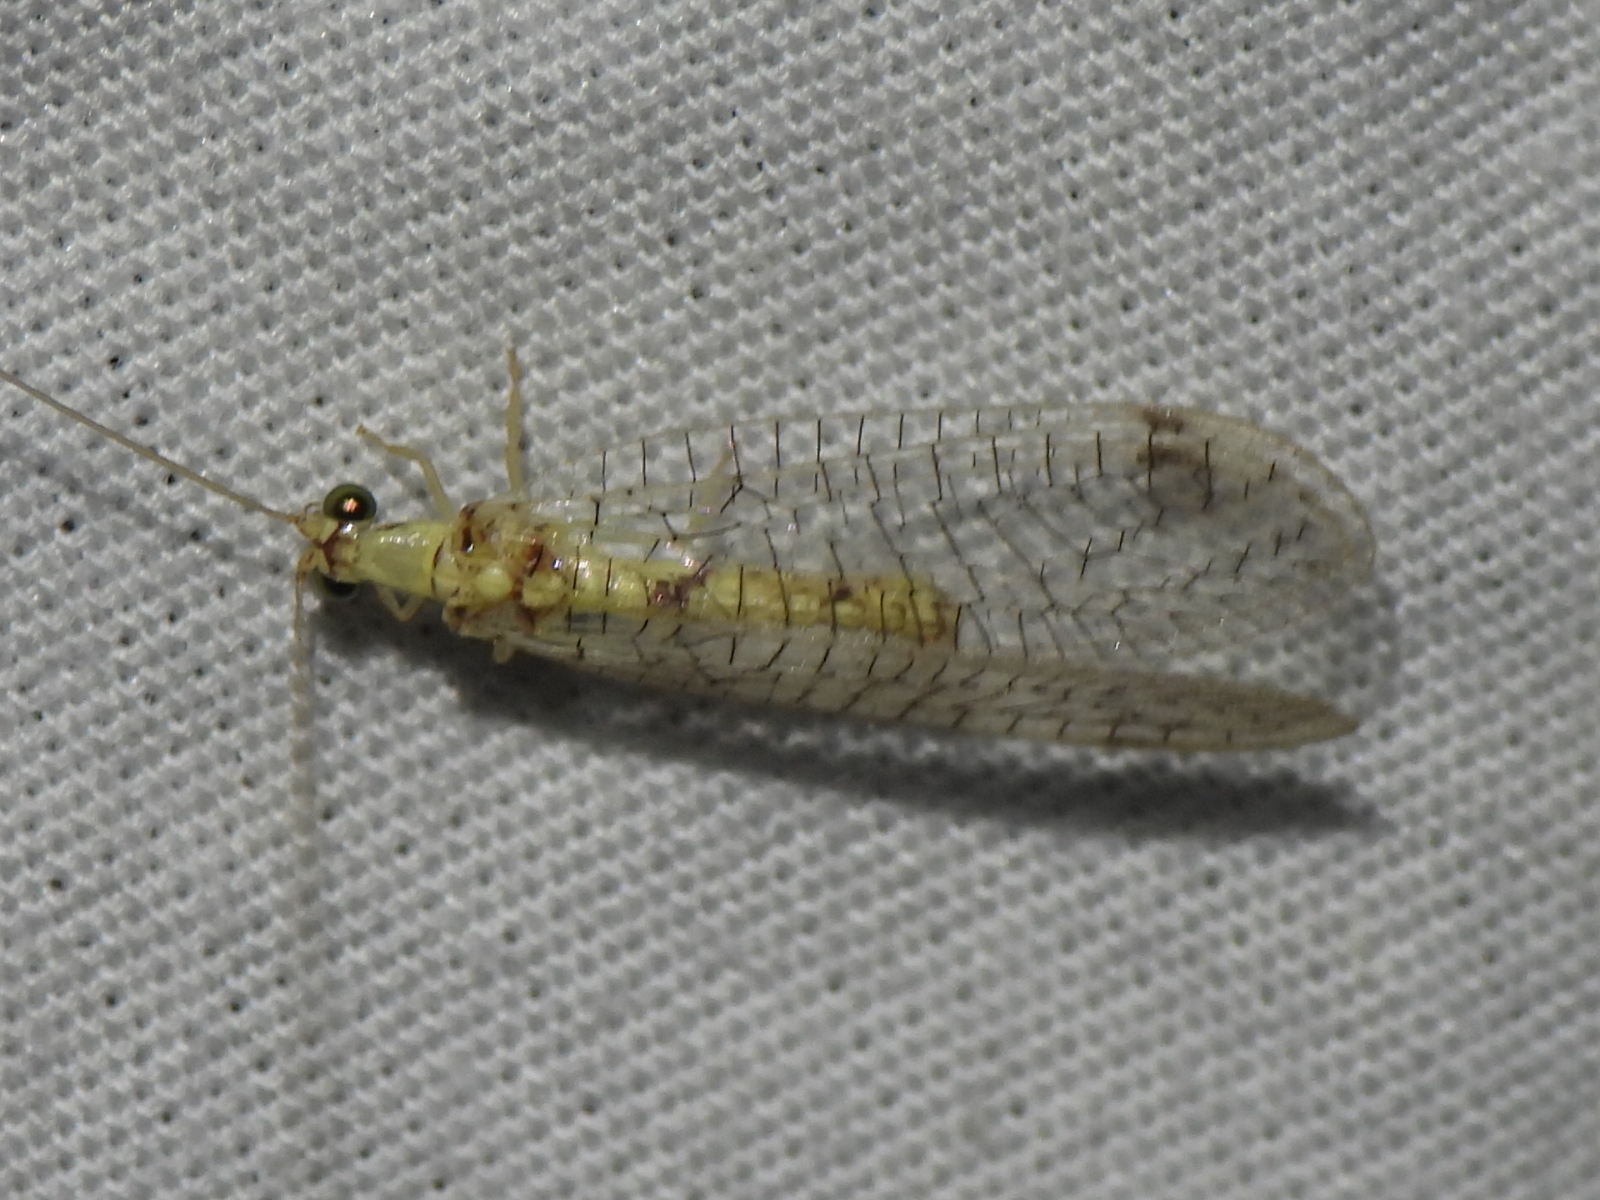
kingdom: Animalia
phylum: Arthropoda
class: Insecta
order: Neuroptera
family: Chrysopidae
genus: Leucochrysa
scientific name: Leucochrysa americana
